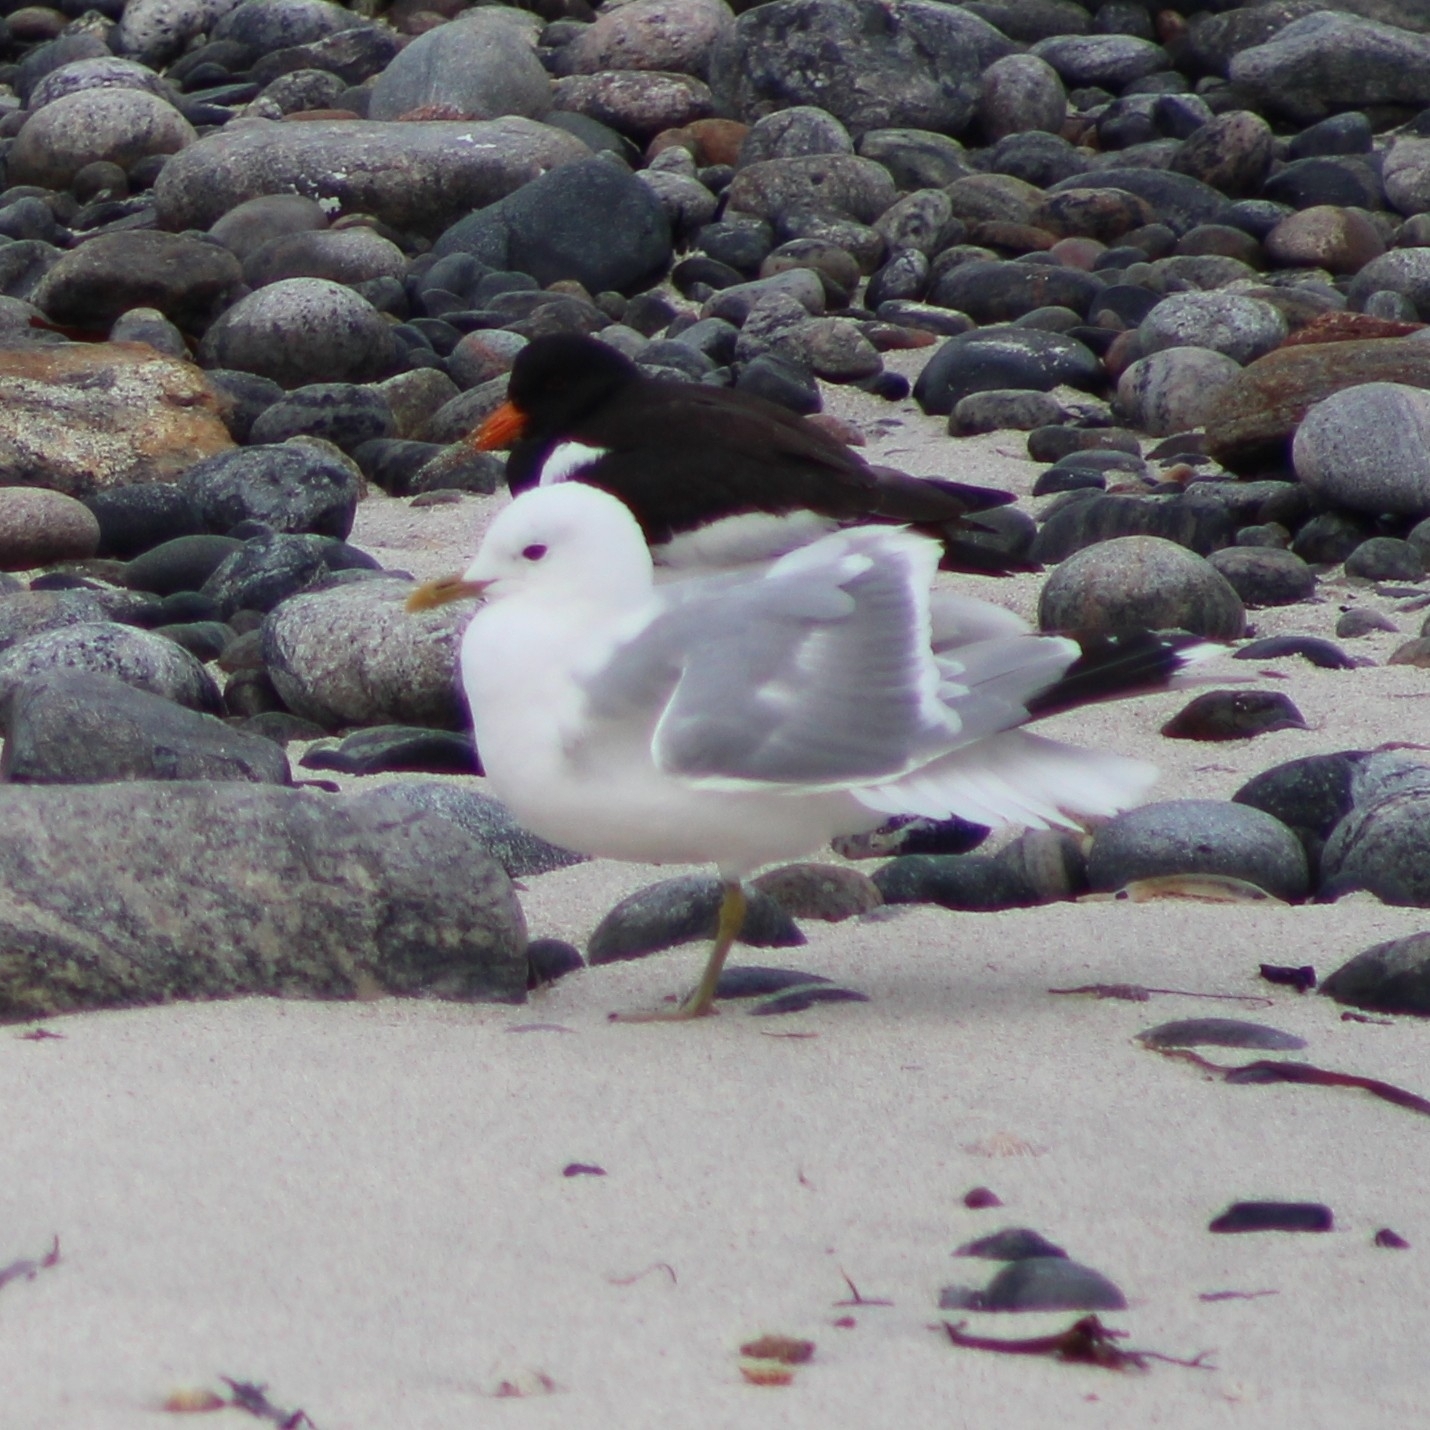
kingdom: Animalia
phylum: Chordata
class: Aves
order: Charadriiformes
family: Laridae
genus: Larus
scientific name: Larus canus
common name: Mew gull
